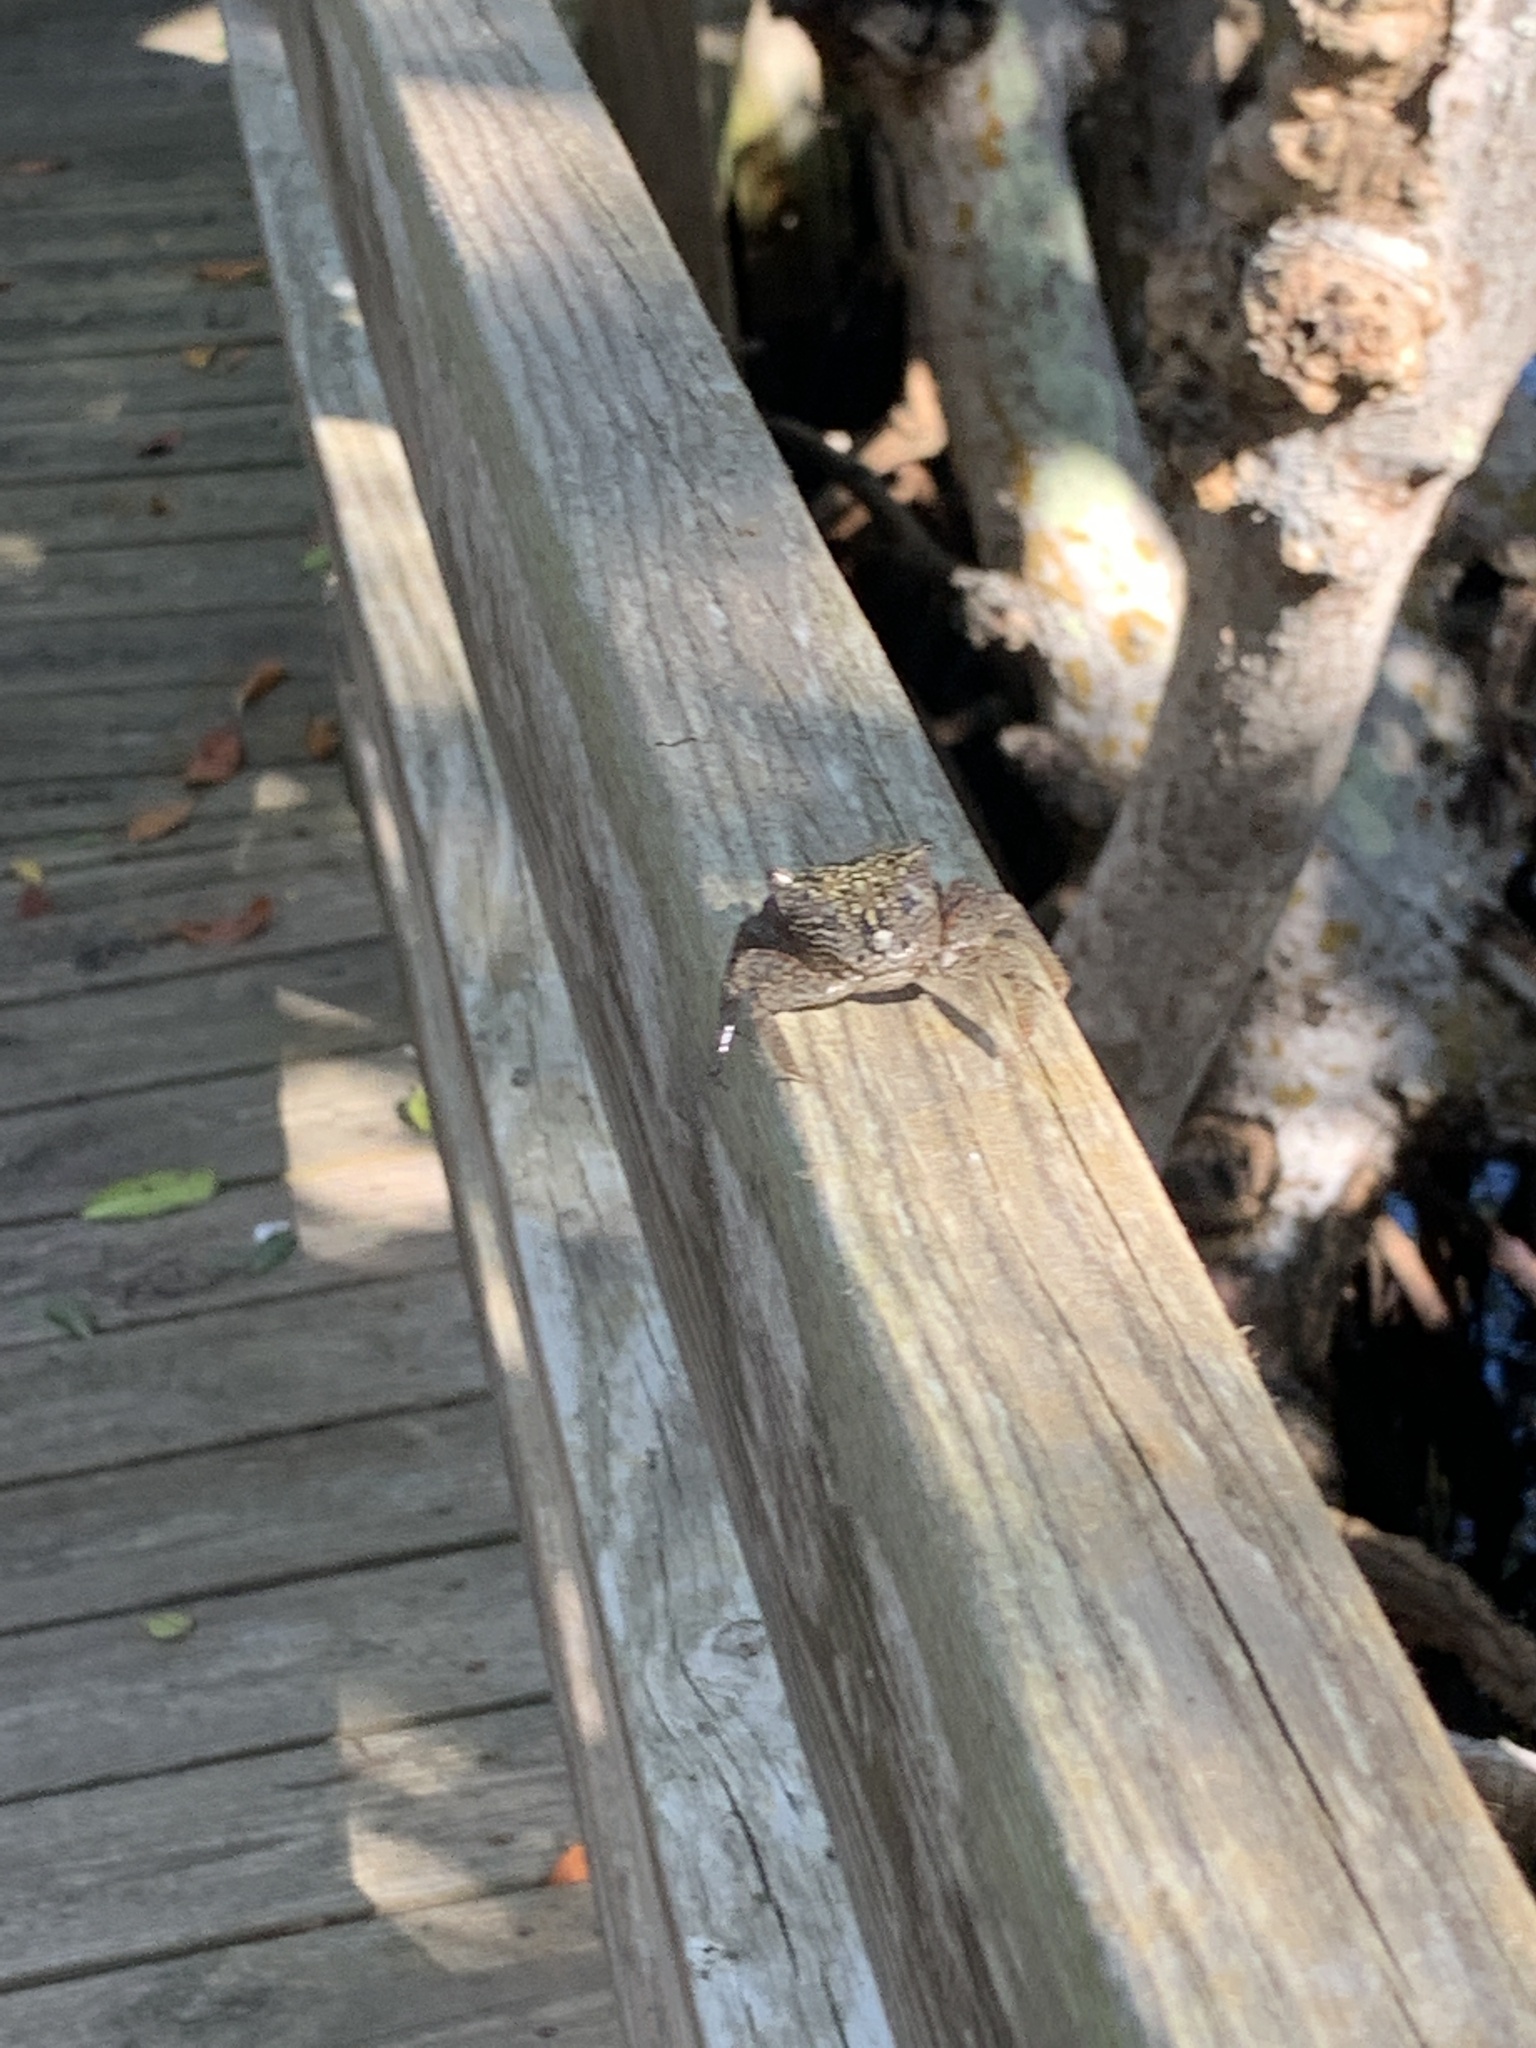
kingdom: Animalia
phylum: Arthropoda
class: Malacostraca
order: Decapoda
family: Sesarmidae
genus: Aratus
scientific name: Aratus pisonii
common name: Mangrove crab
